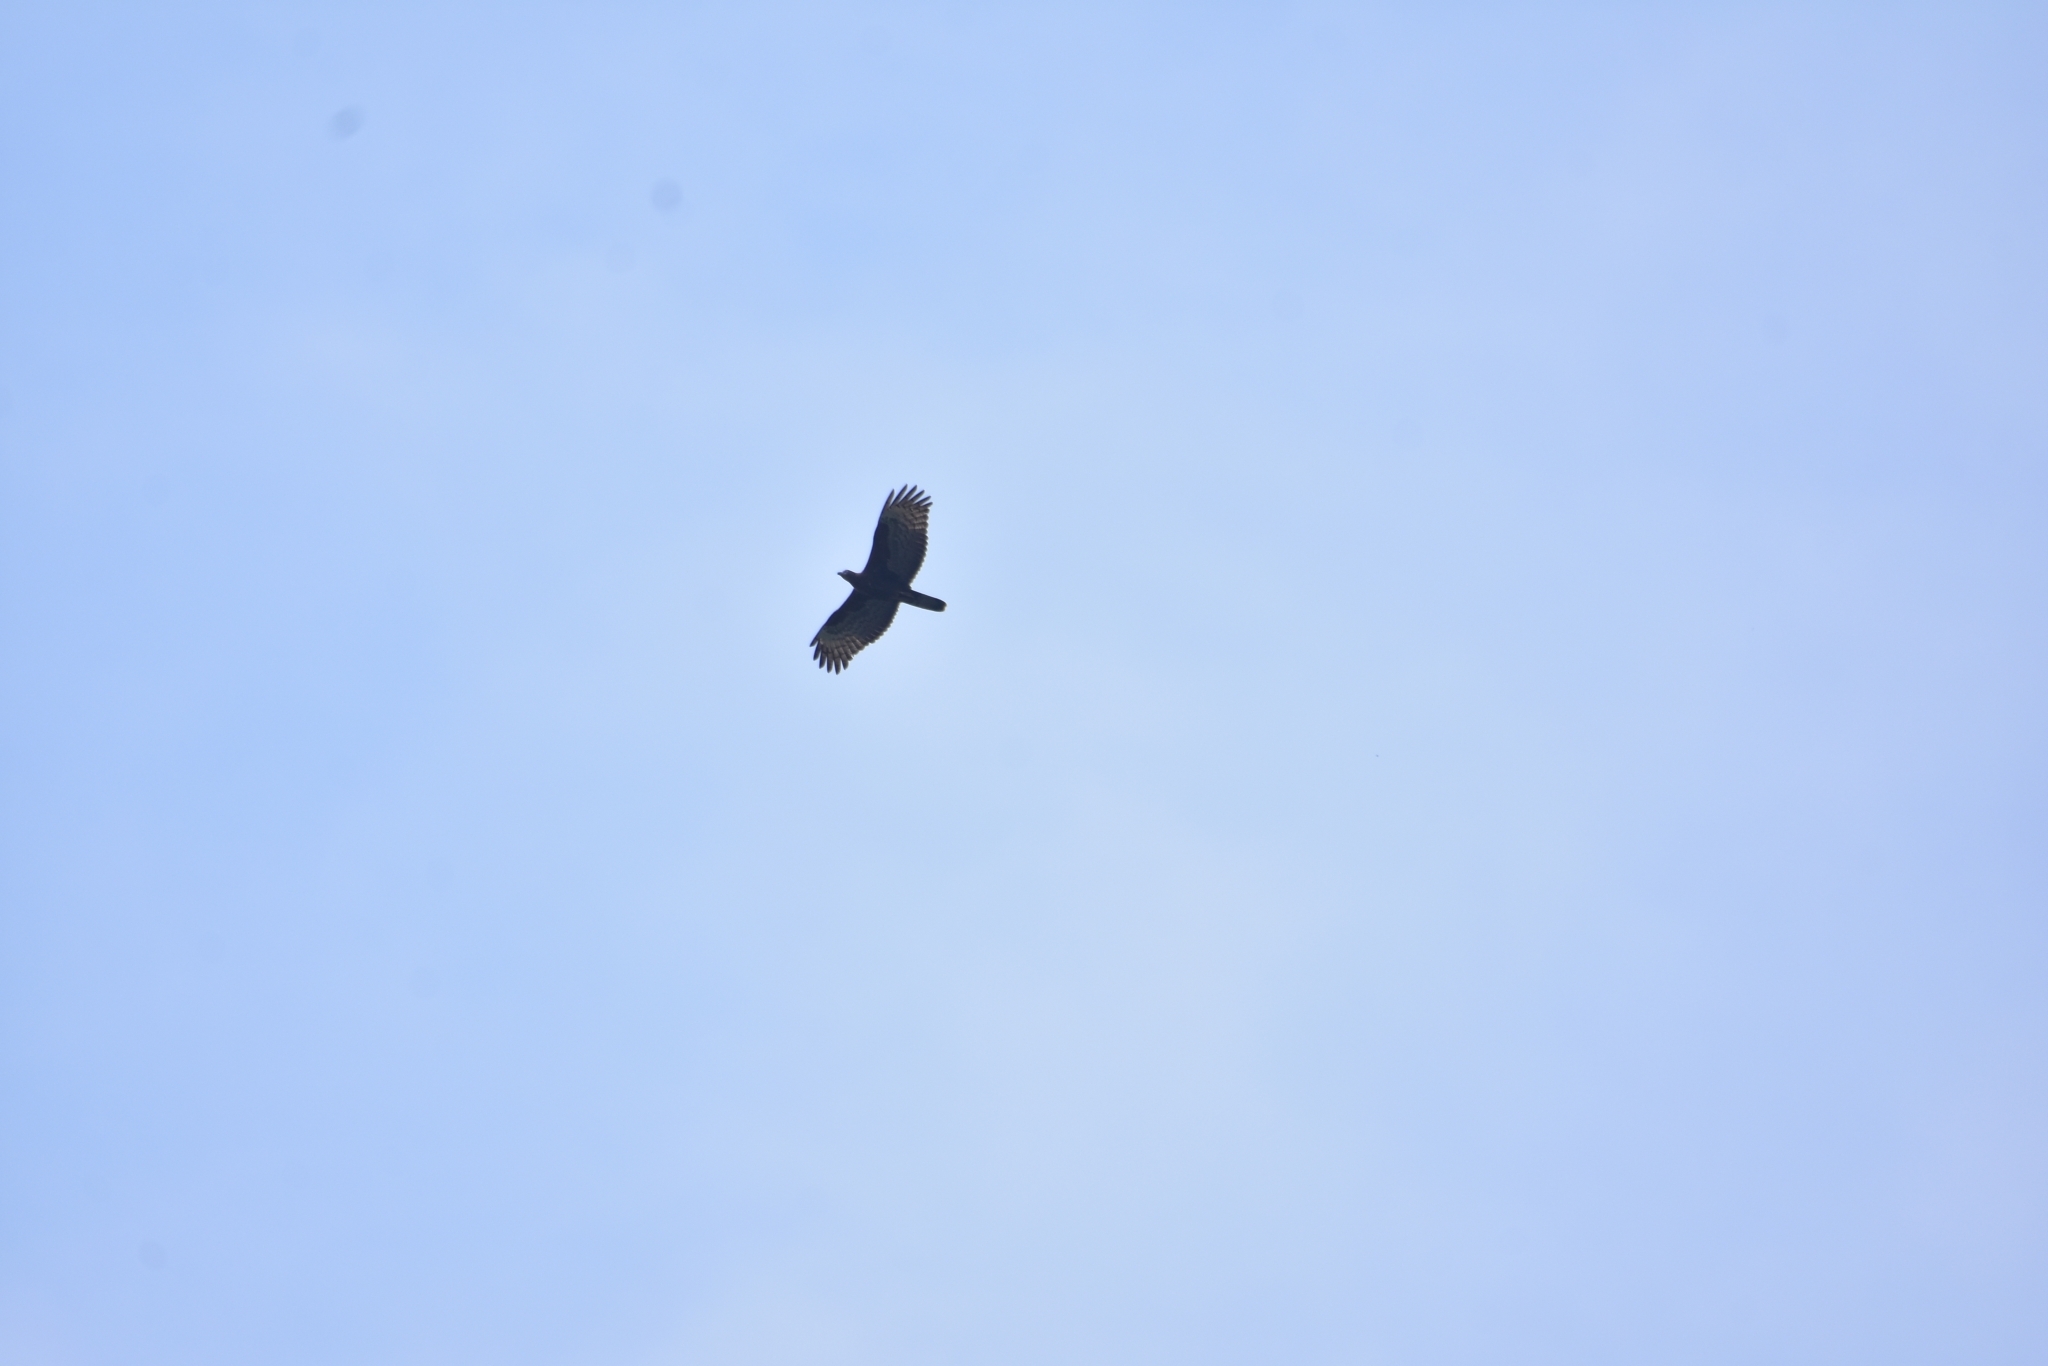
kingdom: Animalia
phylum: Chordata
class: Aves
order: Accipitriformes
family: Accipitridae
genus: Pernis
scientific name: Pernis ptilorhynchus
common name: Crested honey buzzard
